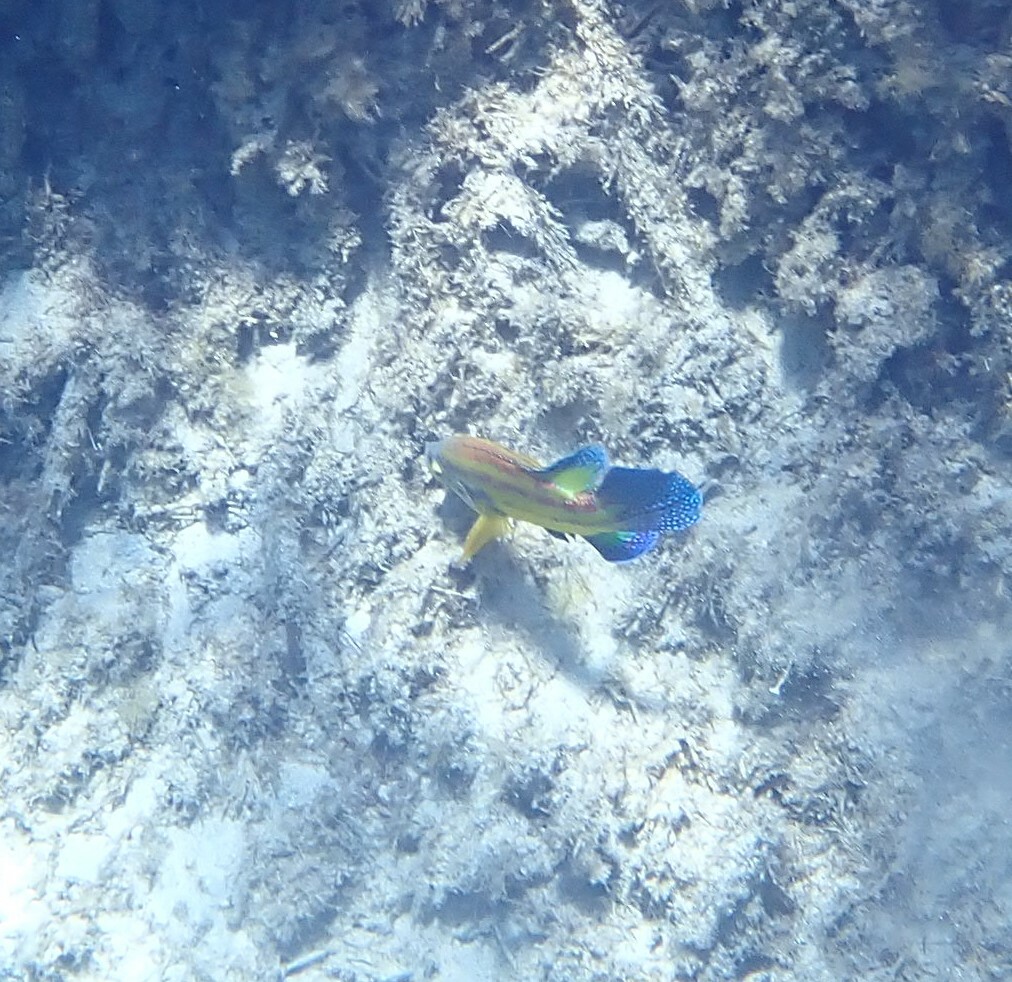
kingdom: Animalia
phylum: Chordata
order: Perciformes
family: Labridae
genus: Symphodus
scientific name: Symphodus tinca
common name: Peacock wrasse
